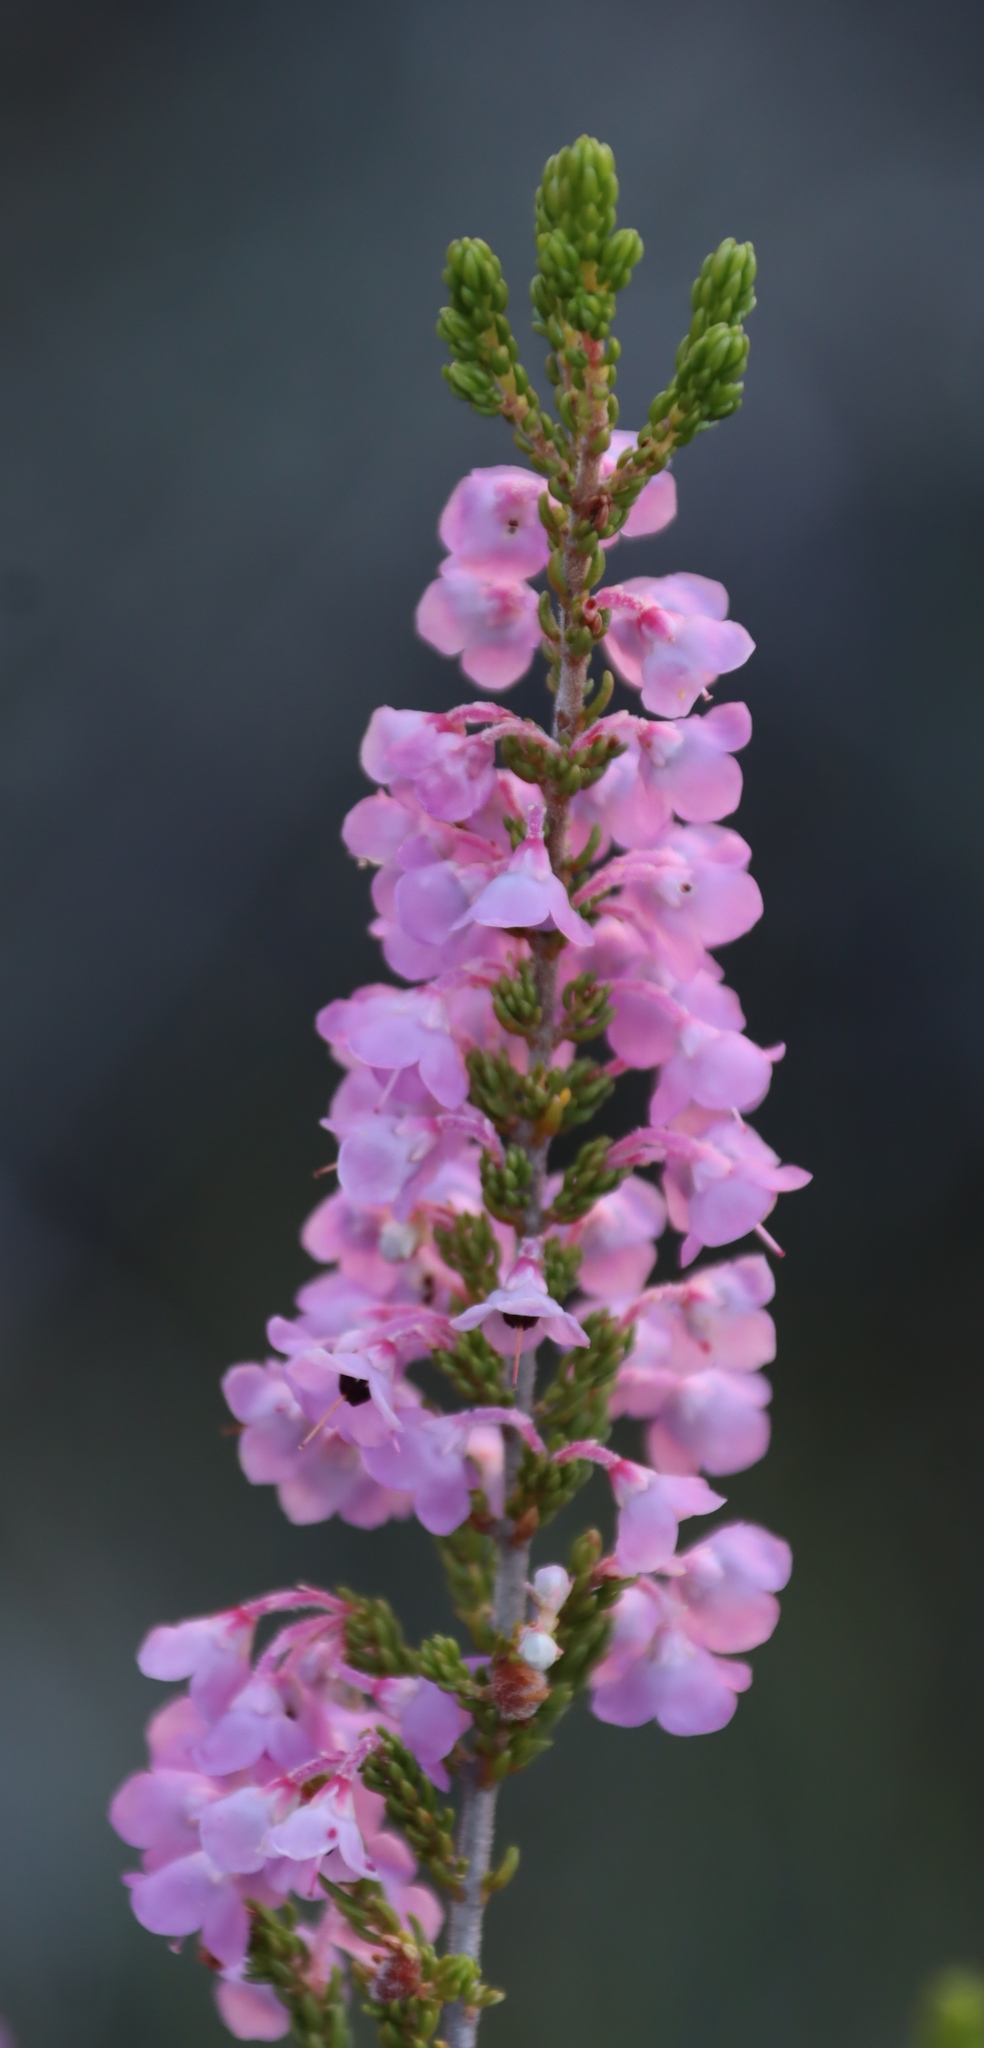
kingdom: Plantae
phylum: Tracheophyta
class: Magnoliopsida
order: Ericales
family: Ericaceae
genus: Erica
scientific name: Erica newdigatei
